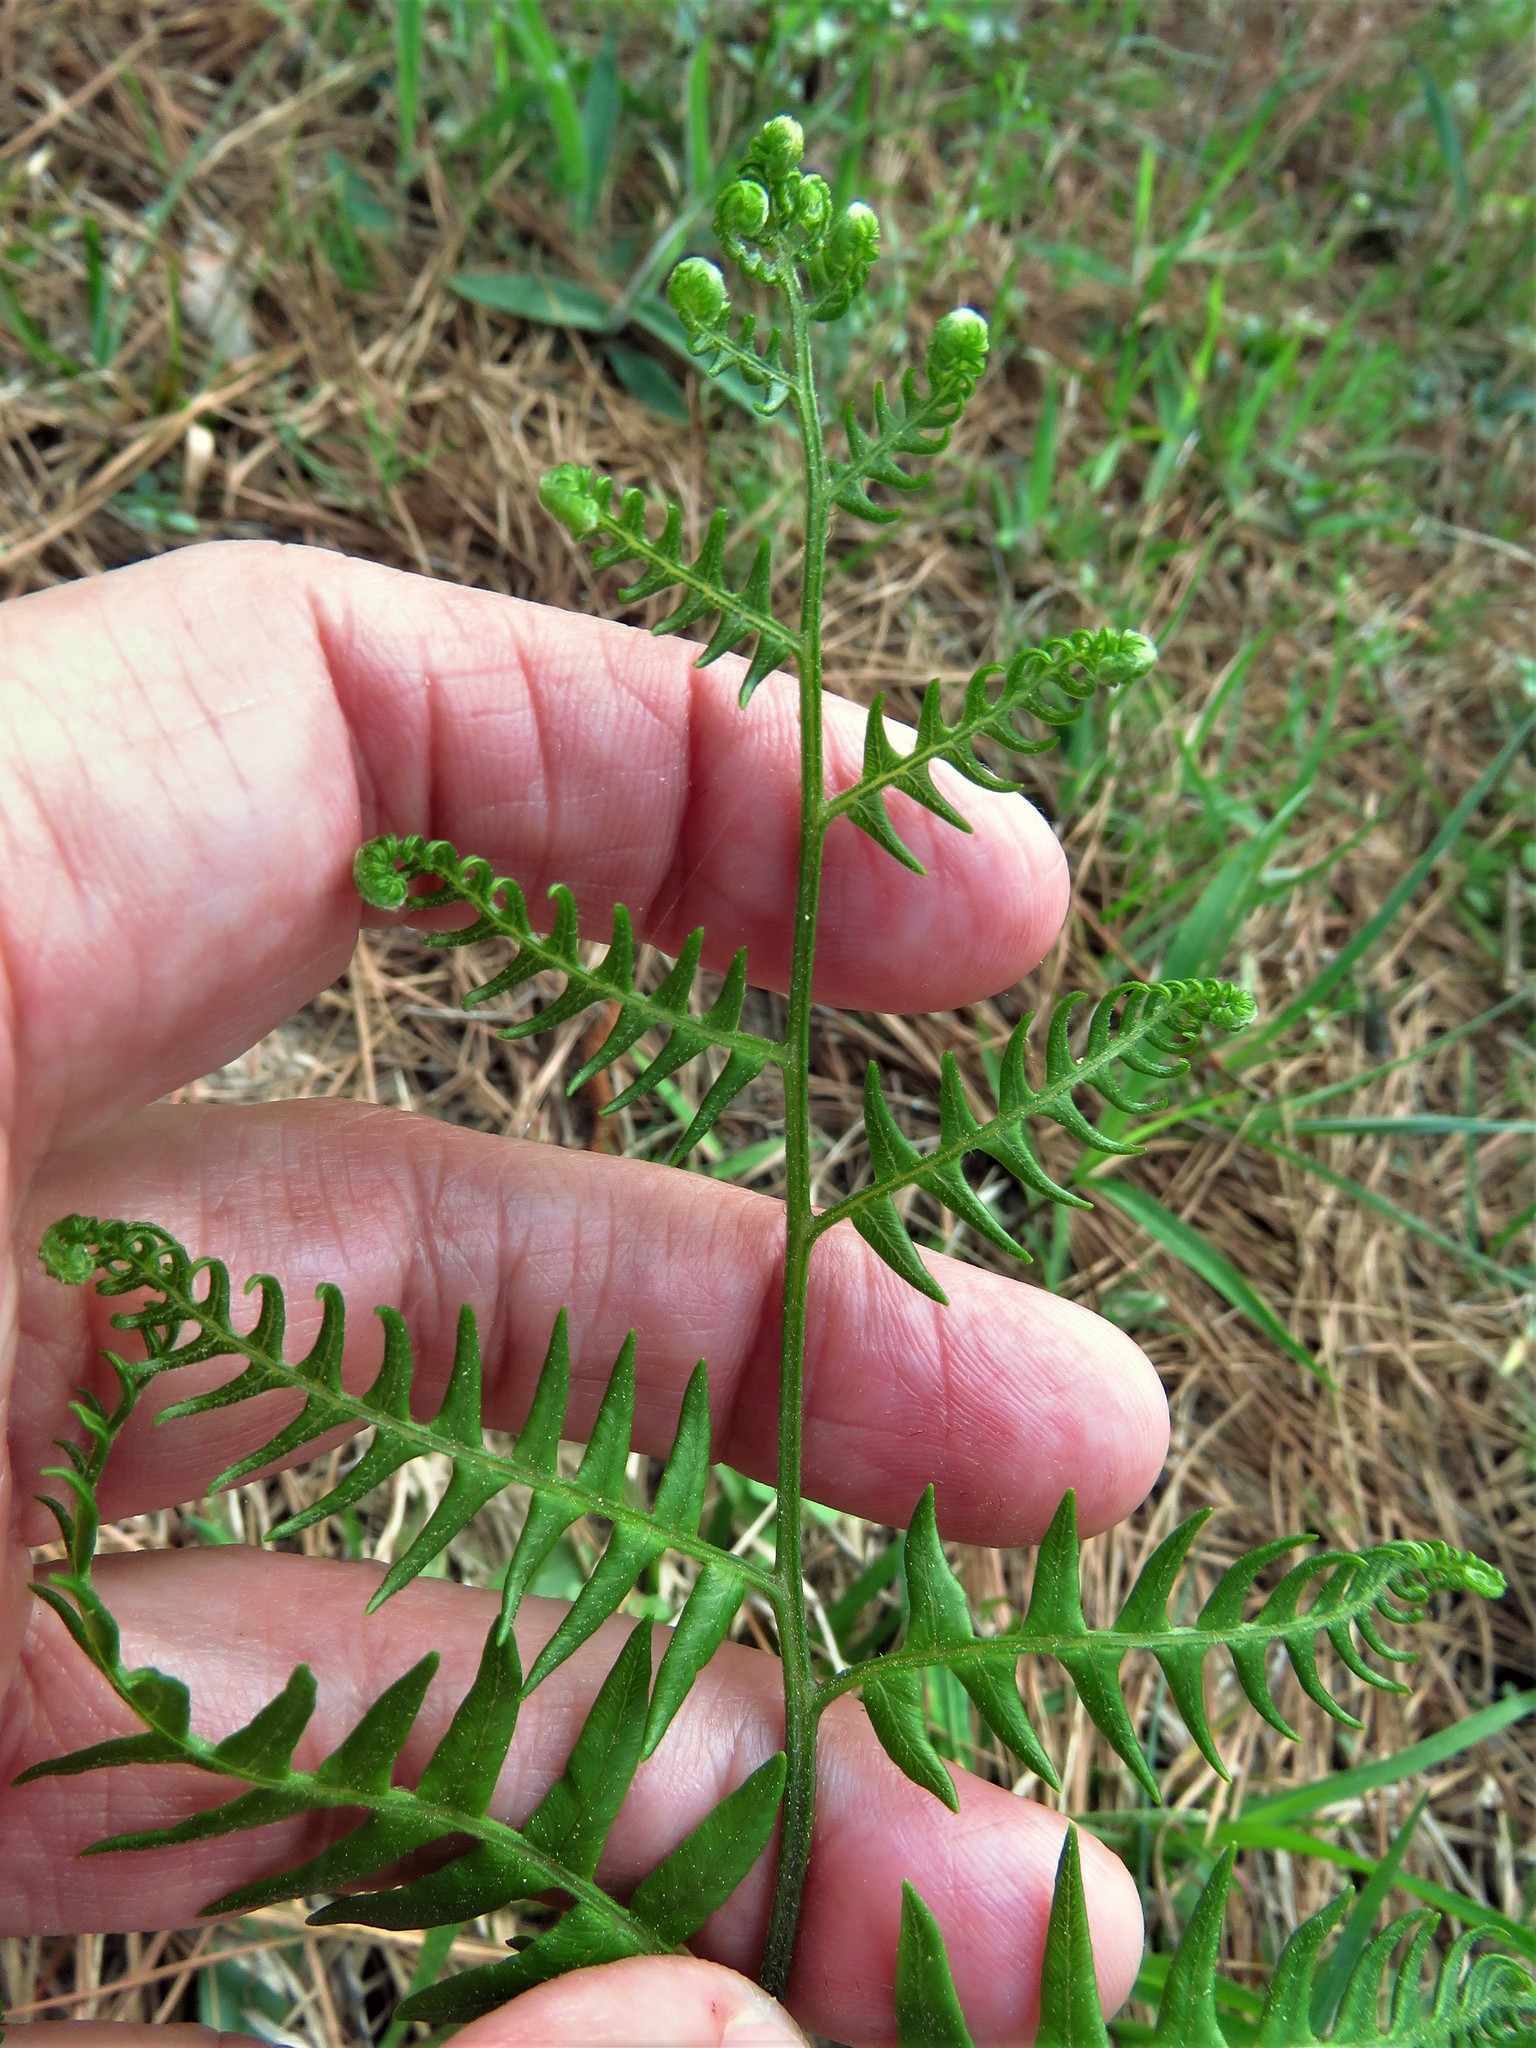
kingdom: Plantae
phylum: Tracheophyta
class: Polypodiopsida
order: Polypodiales
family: Dennstaedtiaceae
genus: Pteridium
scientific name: Pteridium aquilinum
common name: Bracken
